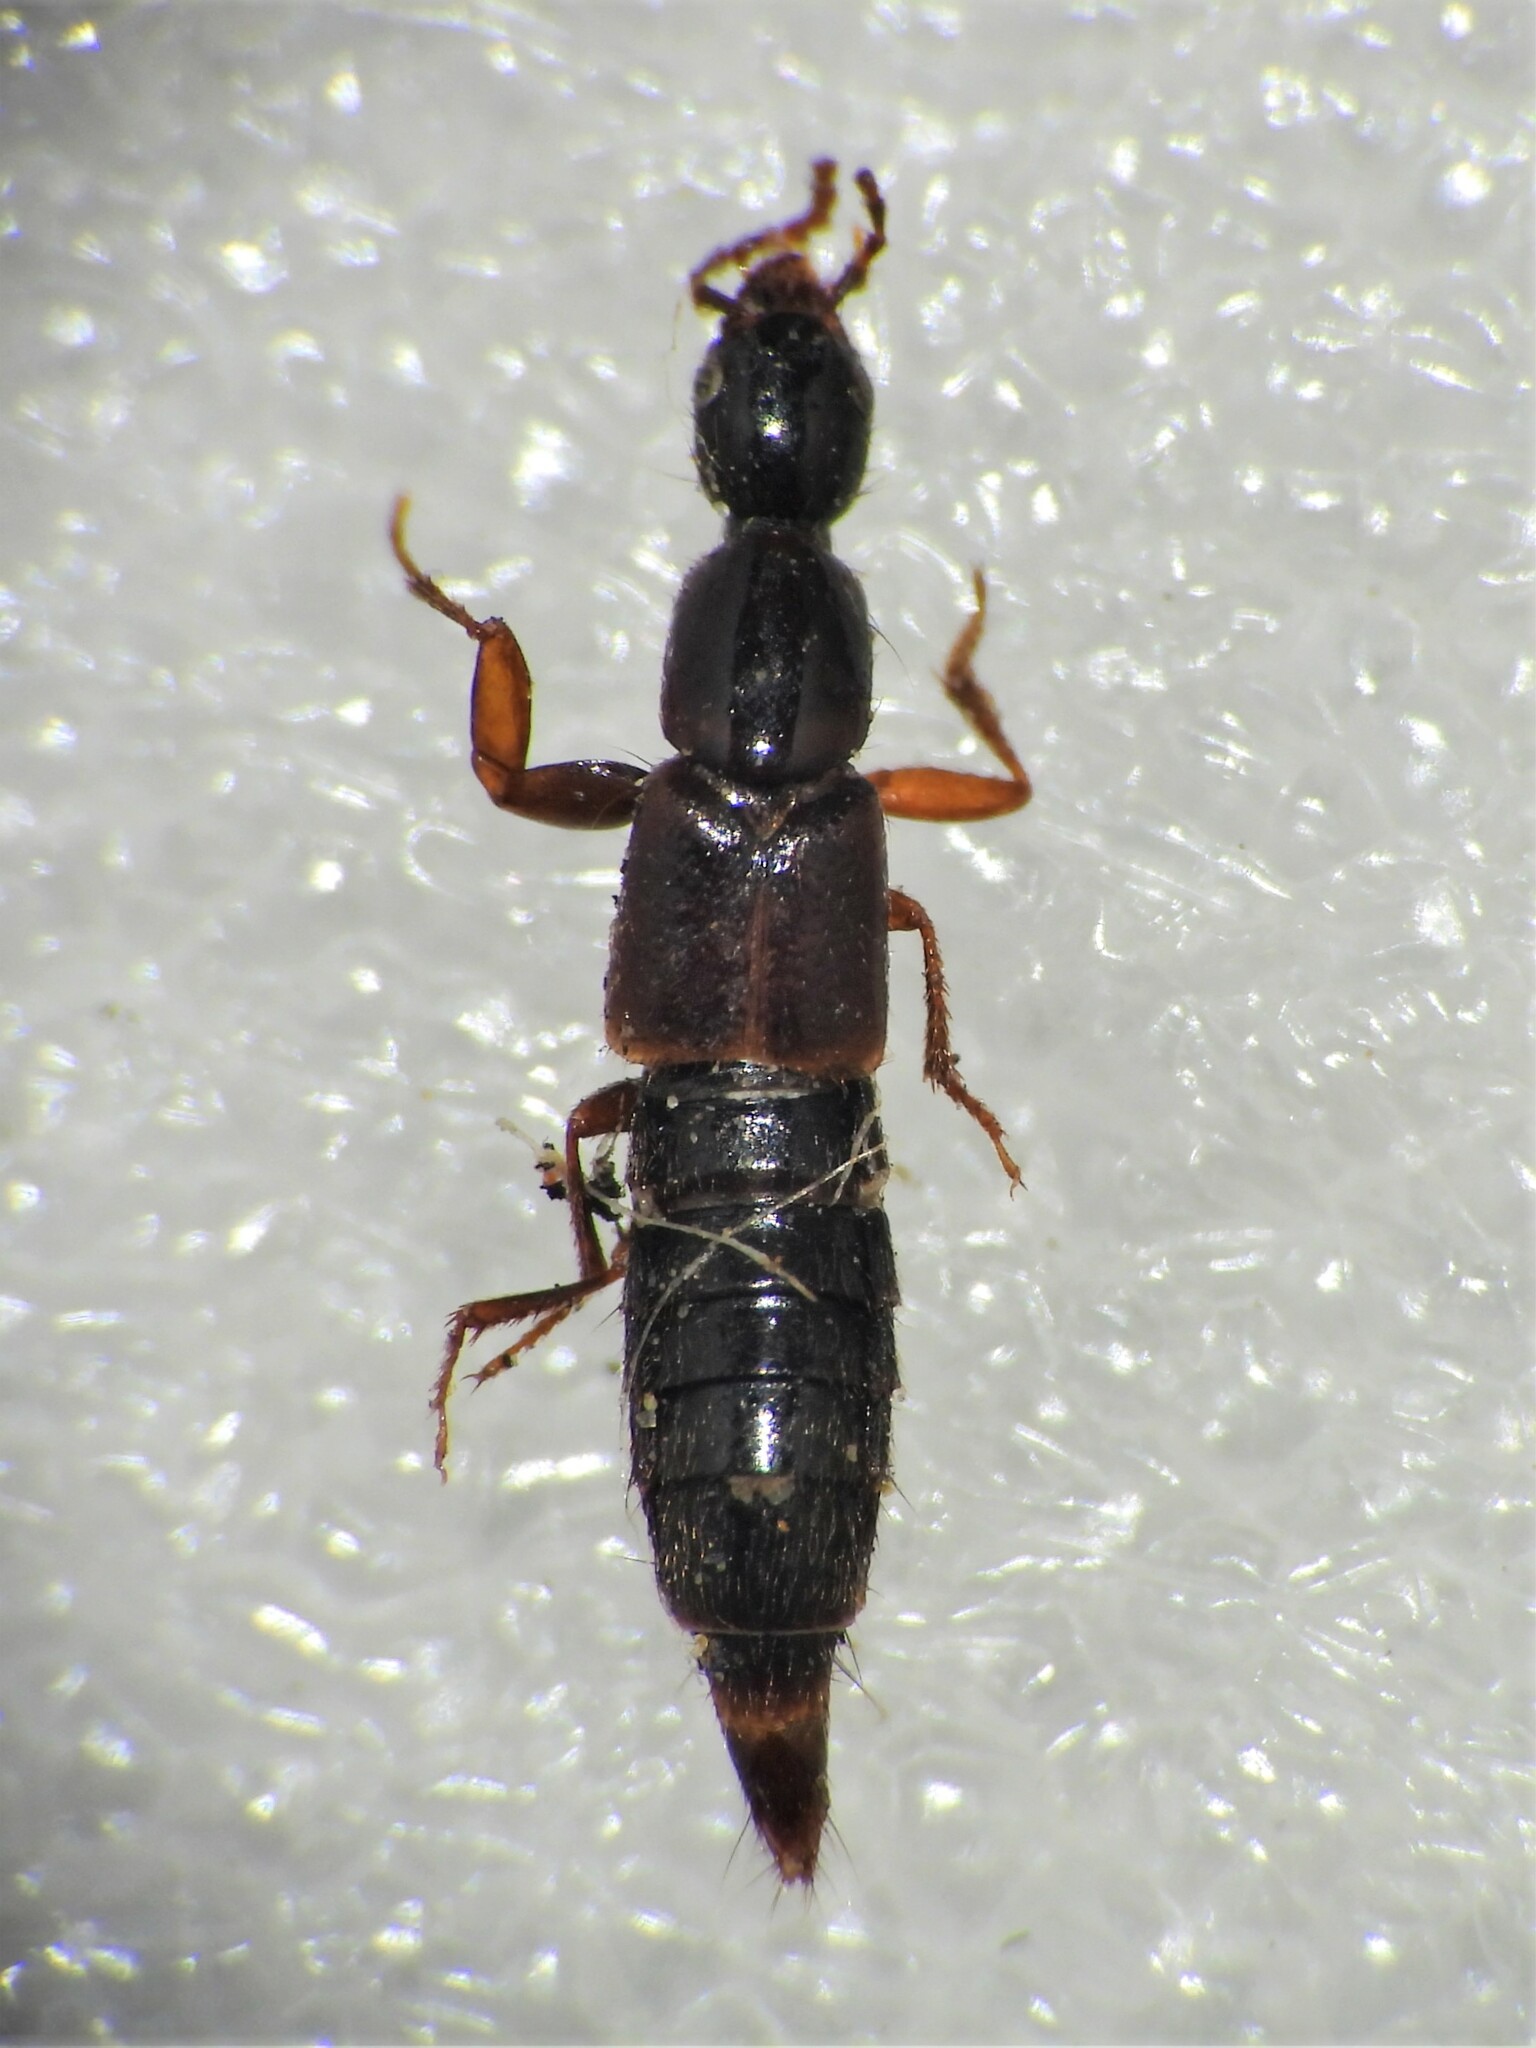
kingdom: Animalia
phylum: Arthropoda
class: Insecta
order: Coleoptera
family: Staphylinidae
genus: Othius
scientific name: Othius laeviusculus
